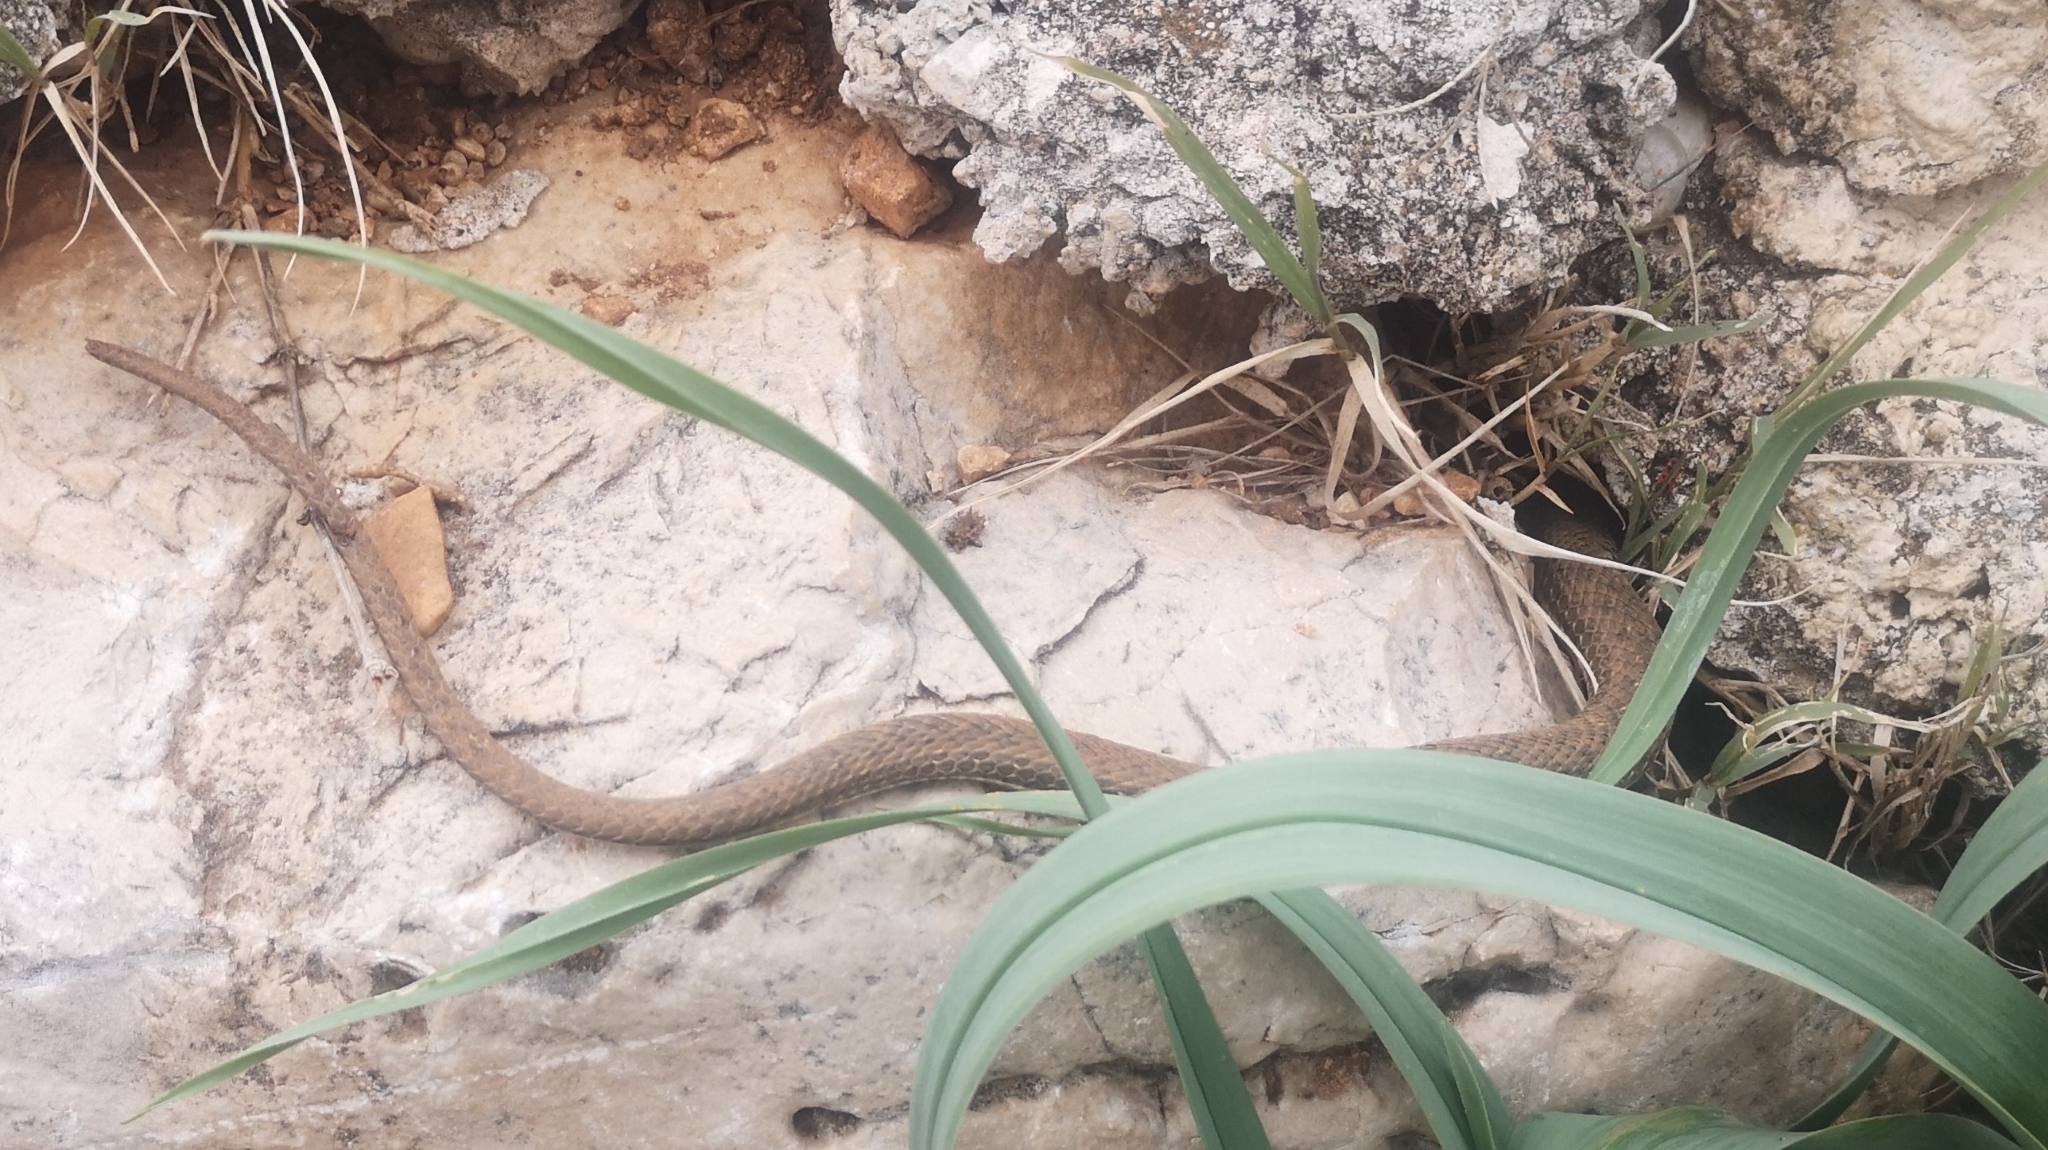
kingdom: Animalia
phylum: Chordata
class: Squamata
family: Psammophiidae
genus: Malpolon
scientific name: Malpolon insignitus
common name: Eastern montpellier snake
